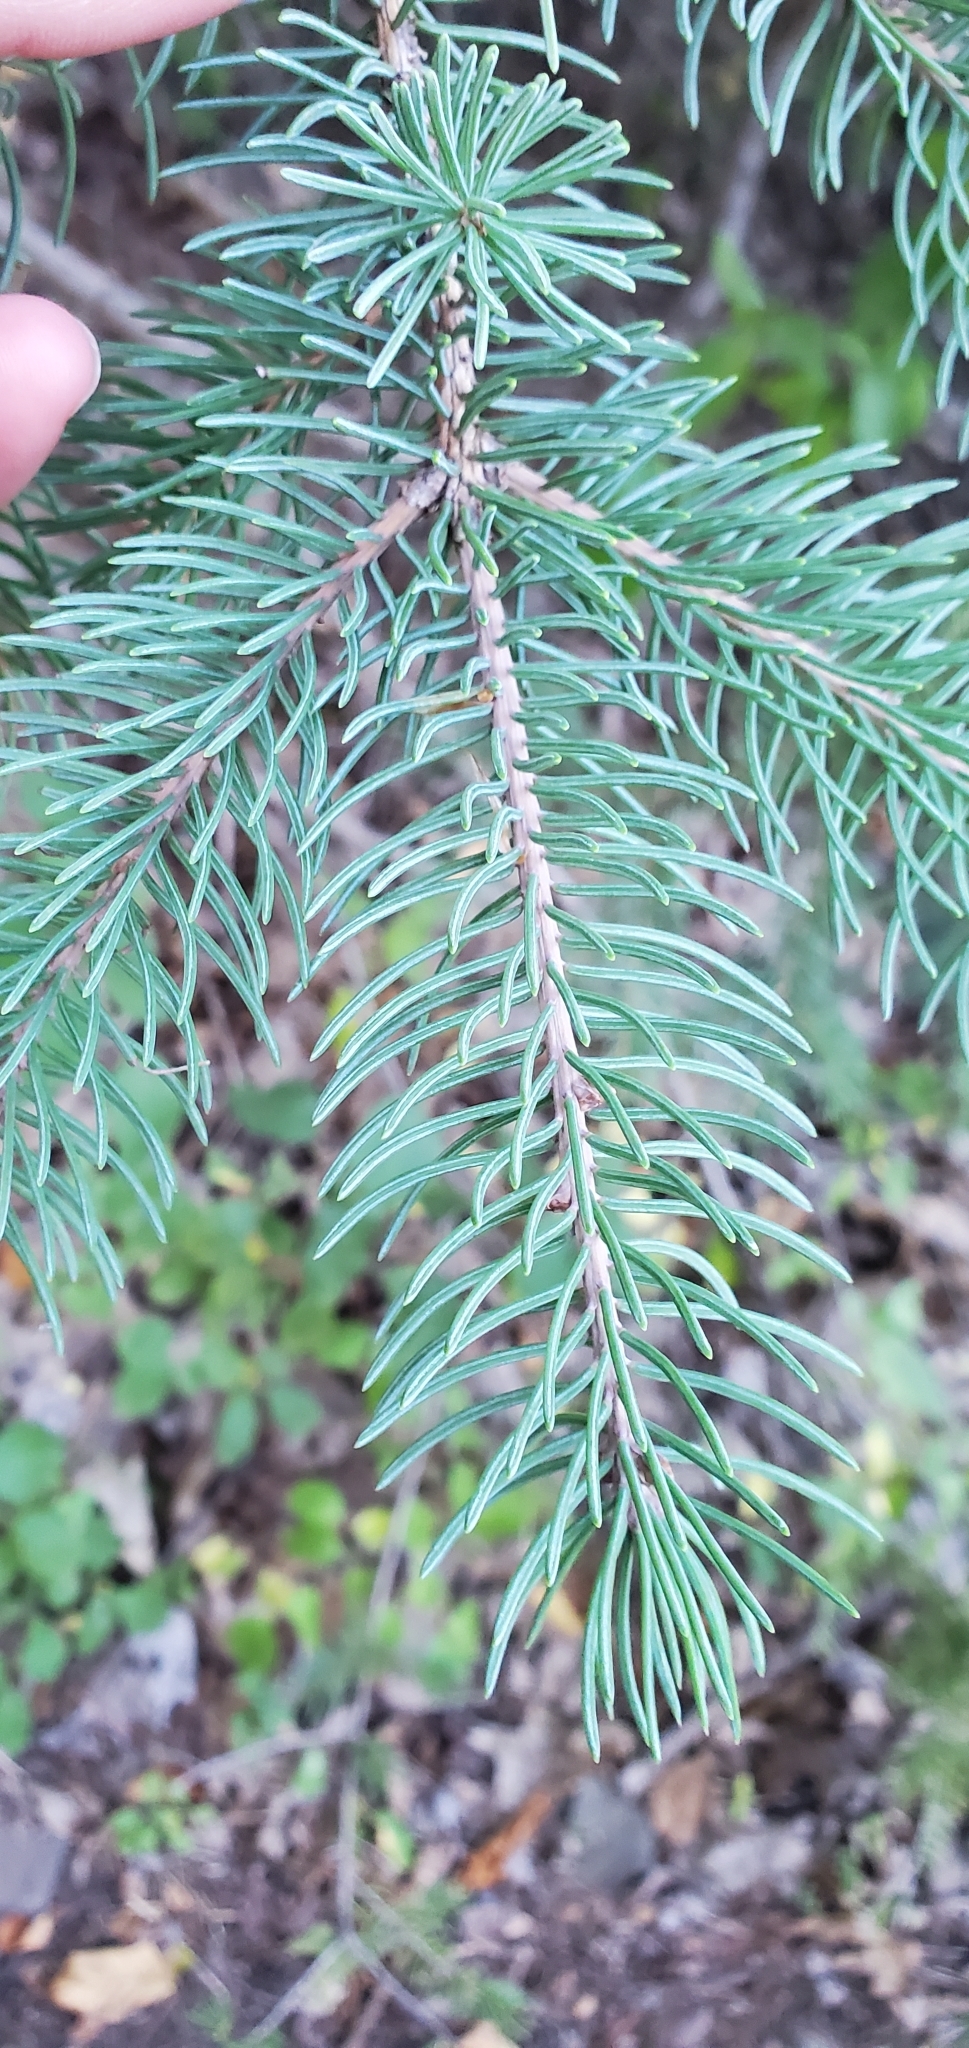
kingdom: Plantae
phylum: Tracheophyta
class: Pinopsida
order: Pinales
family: Pinaceae
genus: Picea
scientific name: Picea glauca
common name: White spruce
